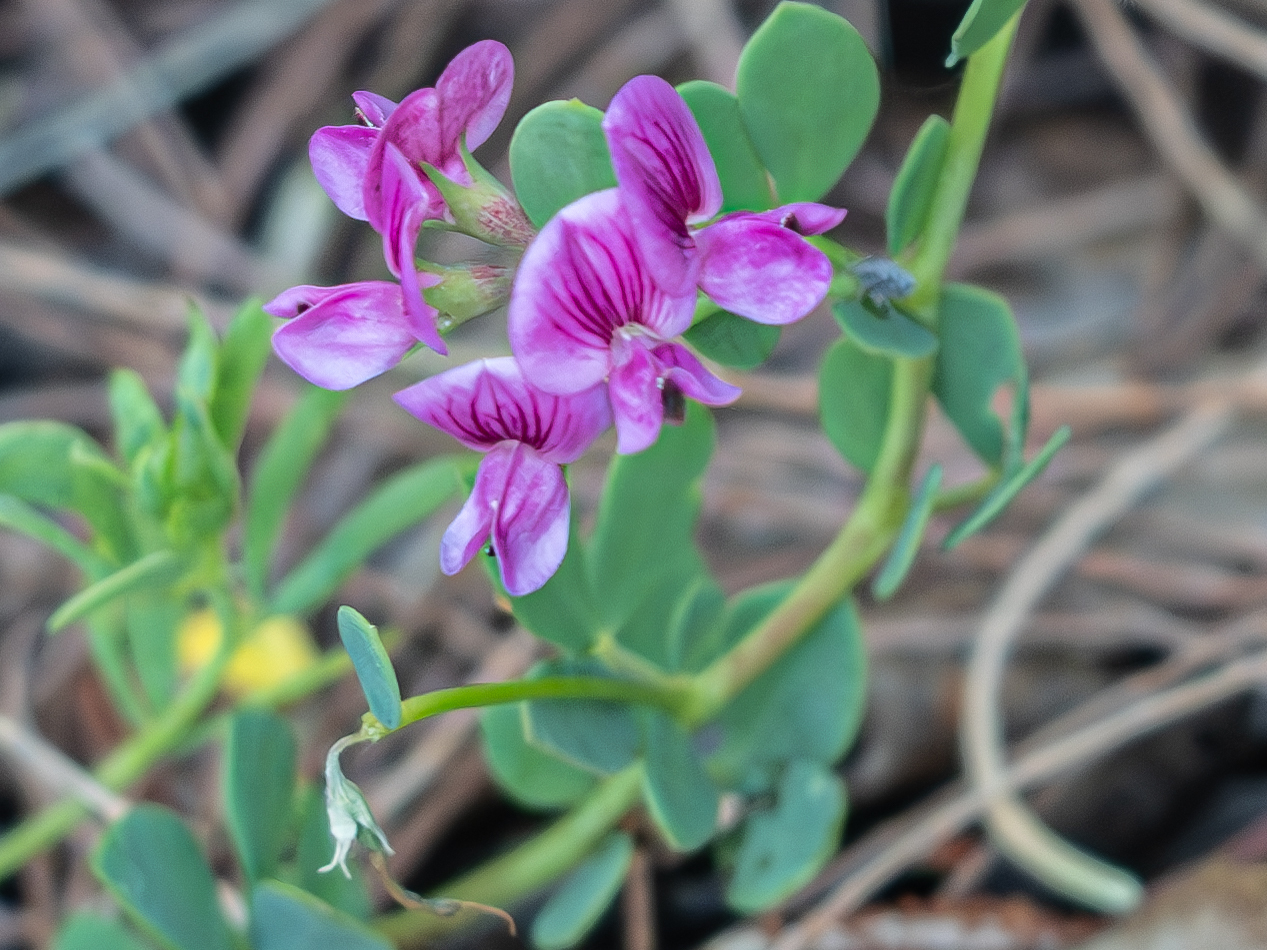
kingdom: Plantae
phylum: Tracheophyta
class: Magnoliopsida
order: Fabales
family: Fabaceae
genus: Lotus
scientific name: Lotus anfractuosus
